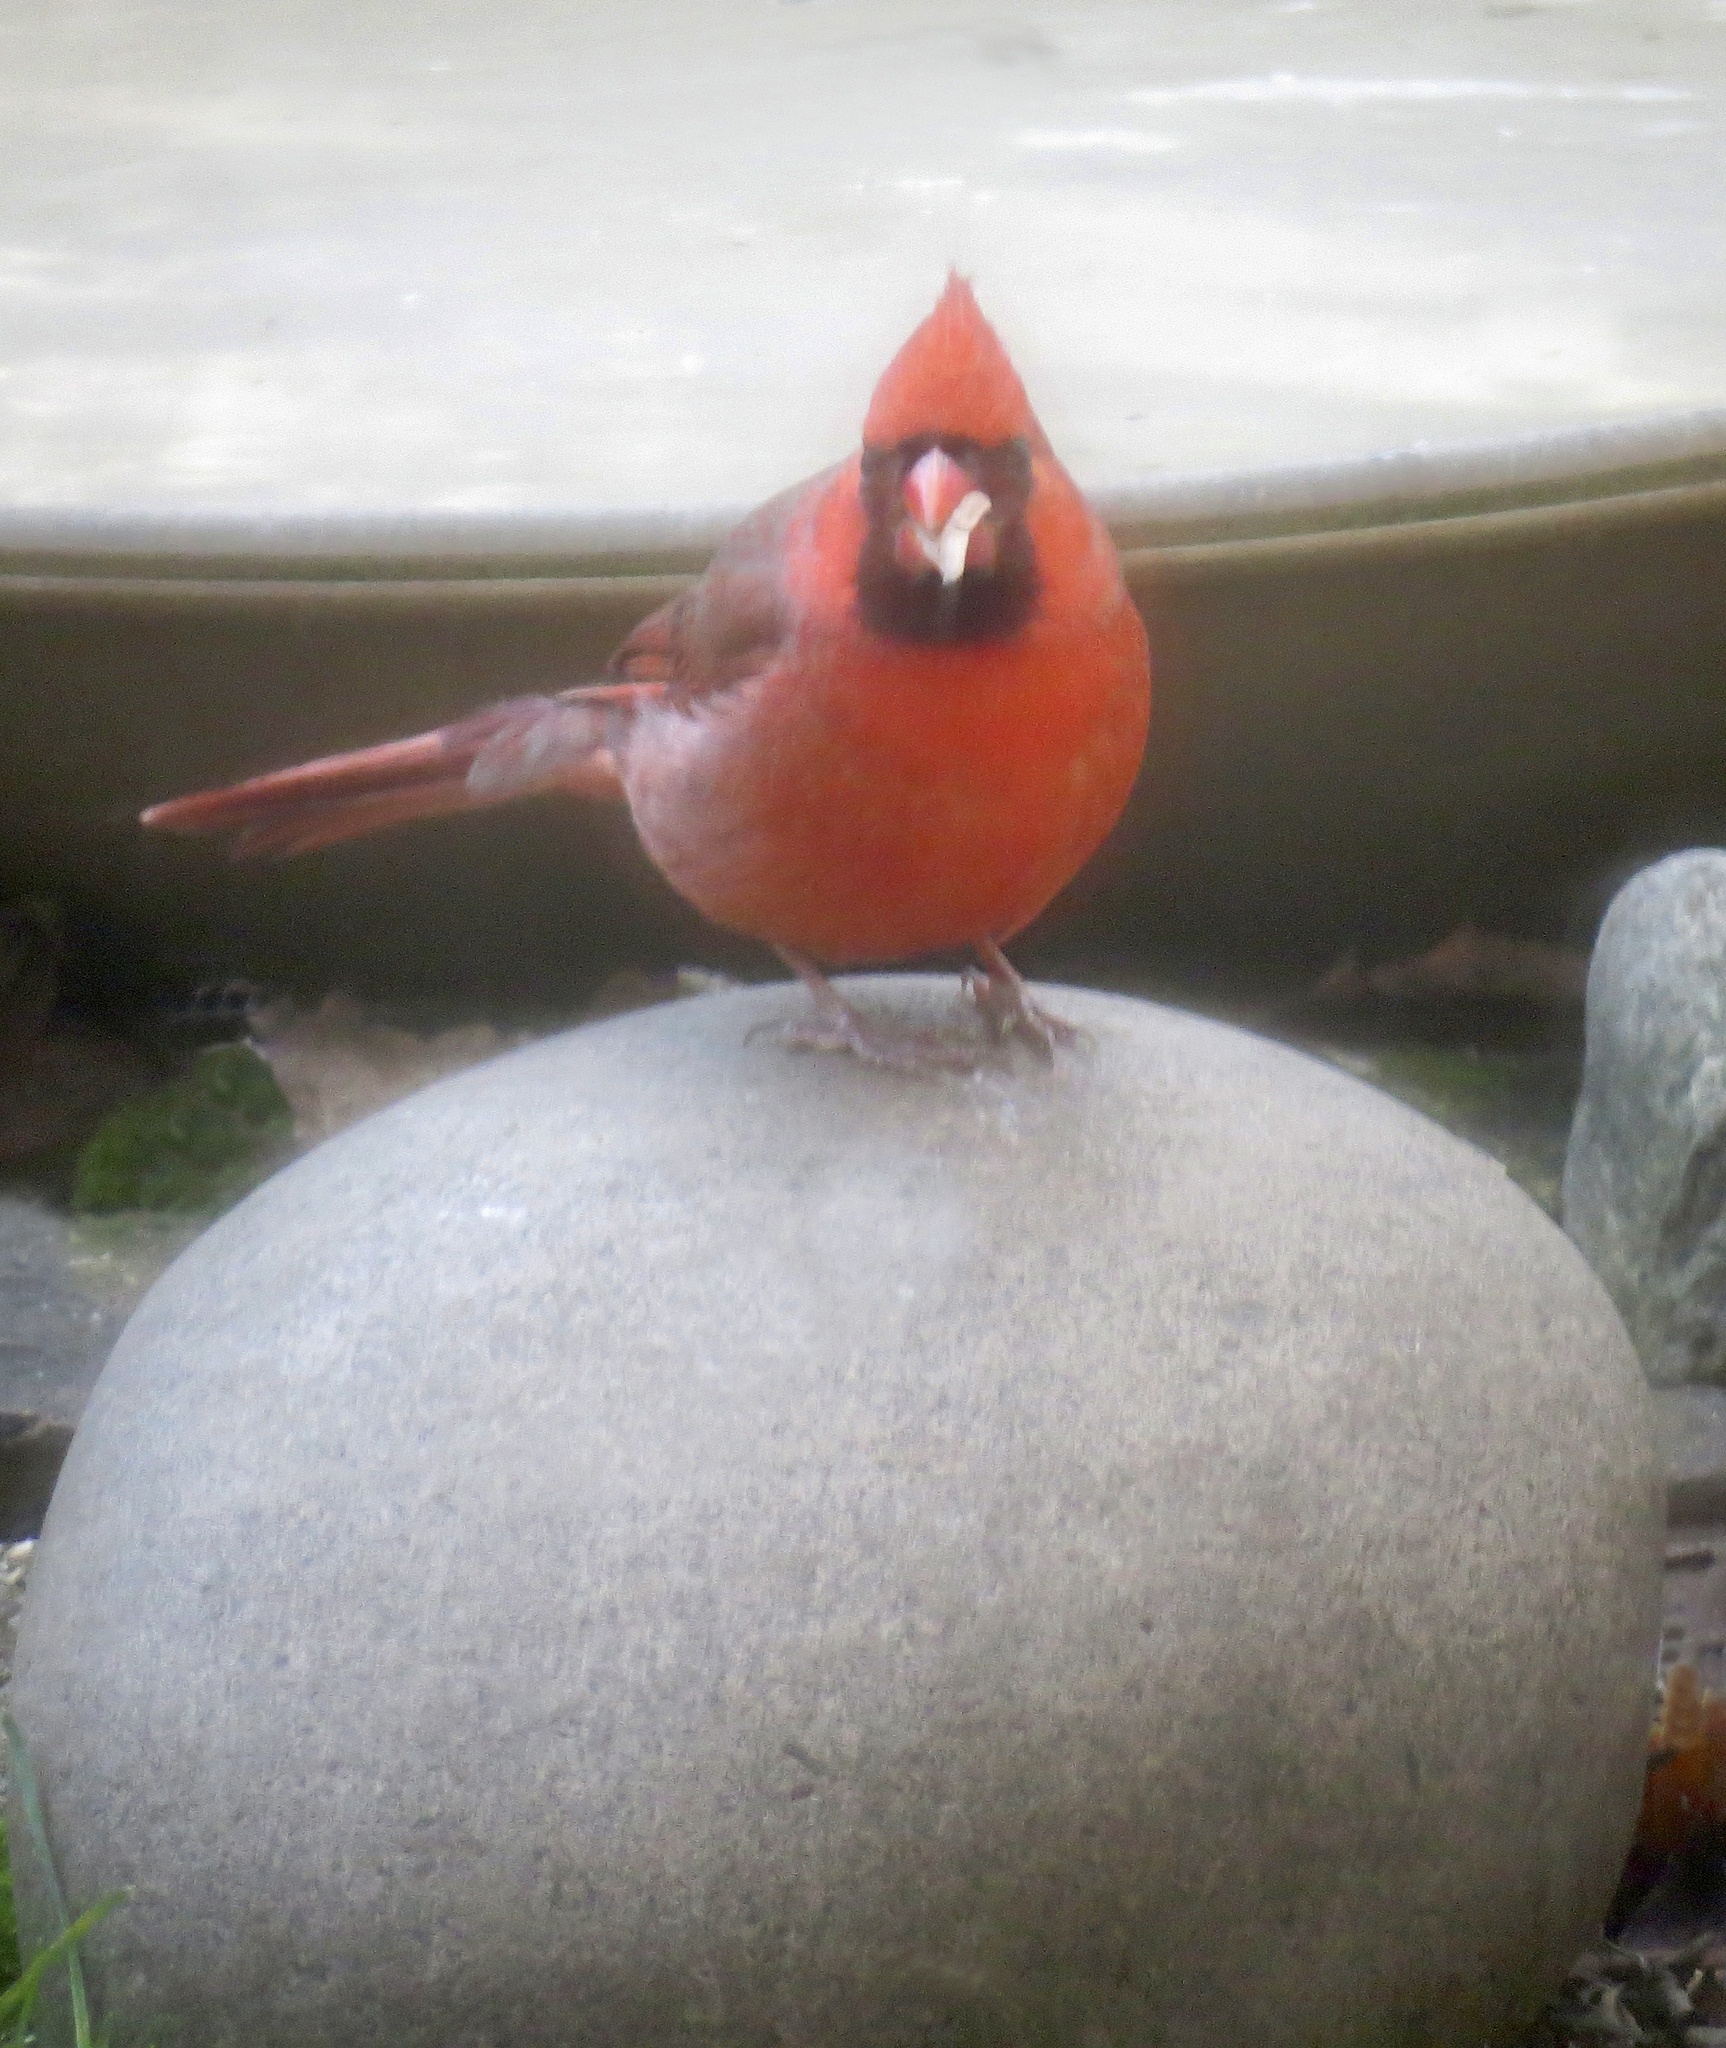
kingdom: Animalia
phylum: Chordata
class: Aves
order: Passeriformes
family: Cardinalidae
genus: Cardinalis
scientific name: Cardinalis cardinalis
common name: Northern cardinal
